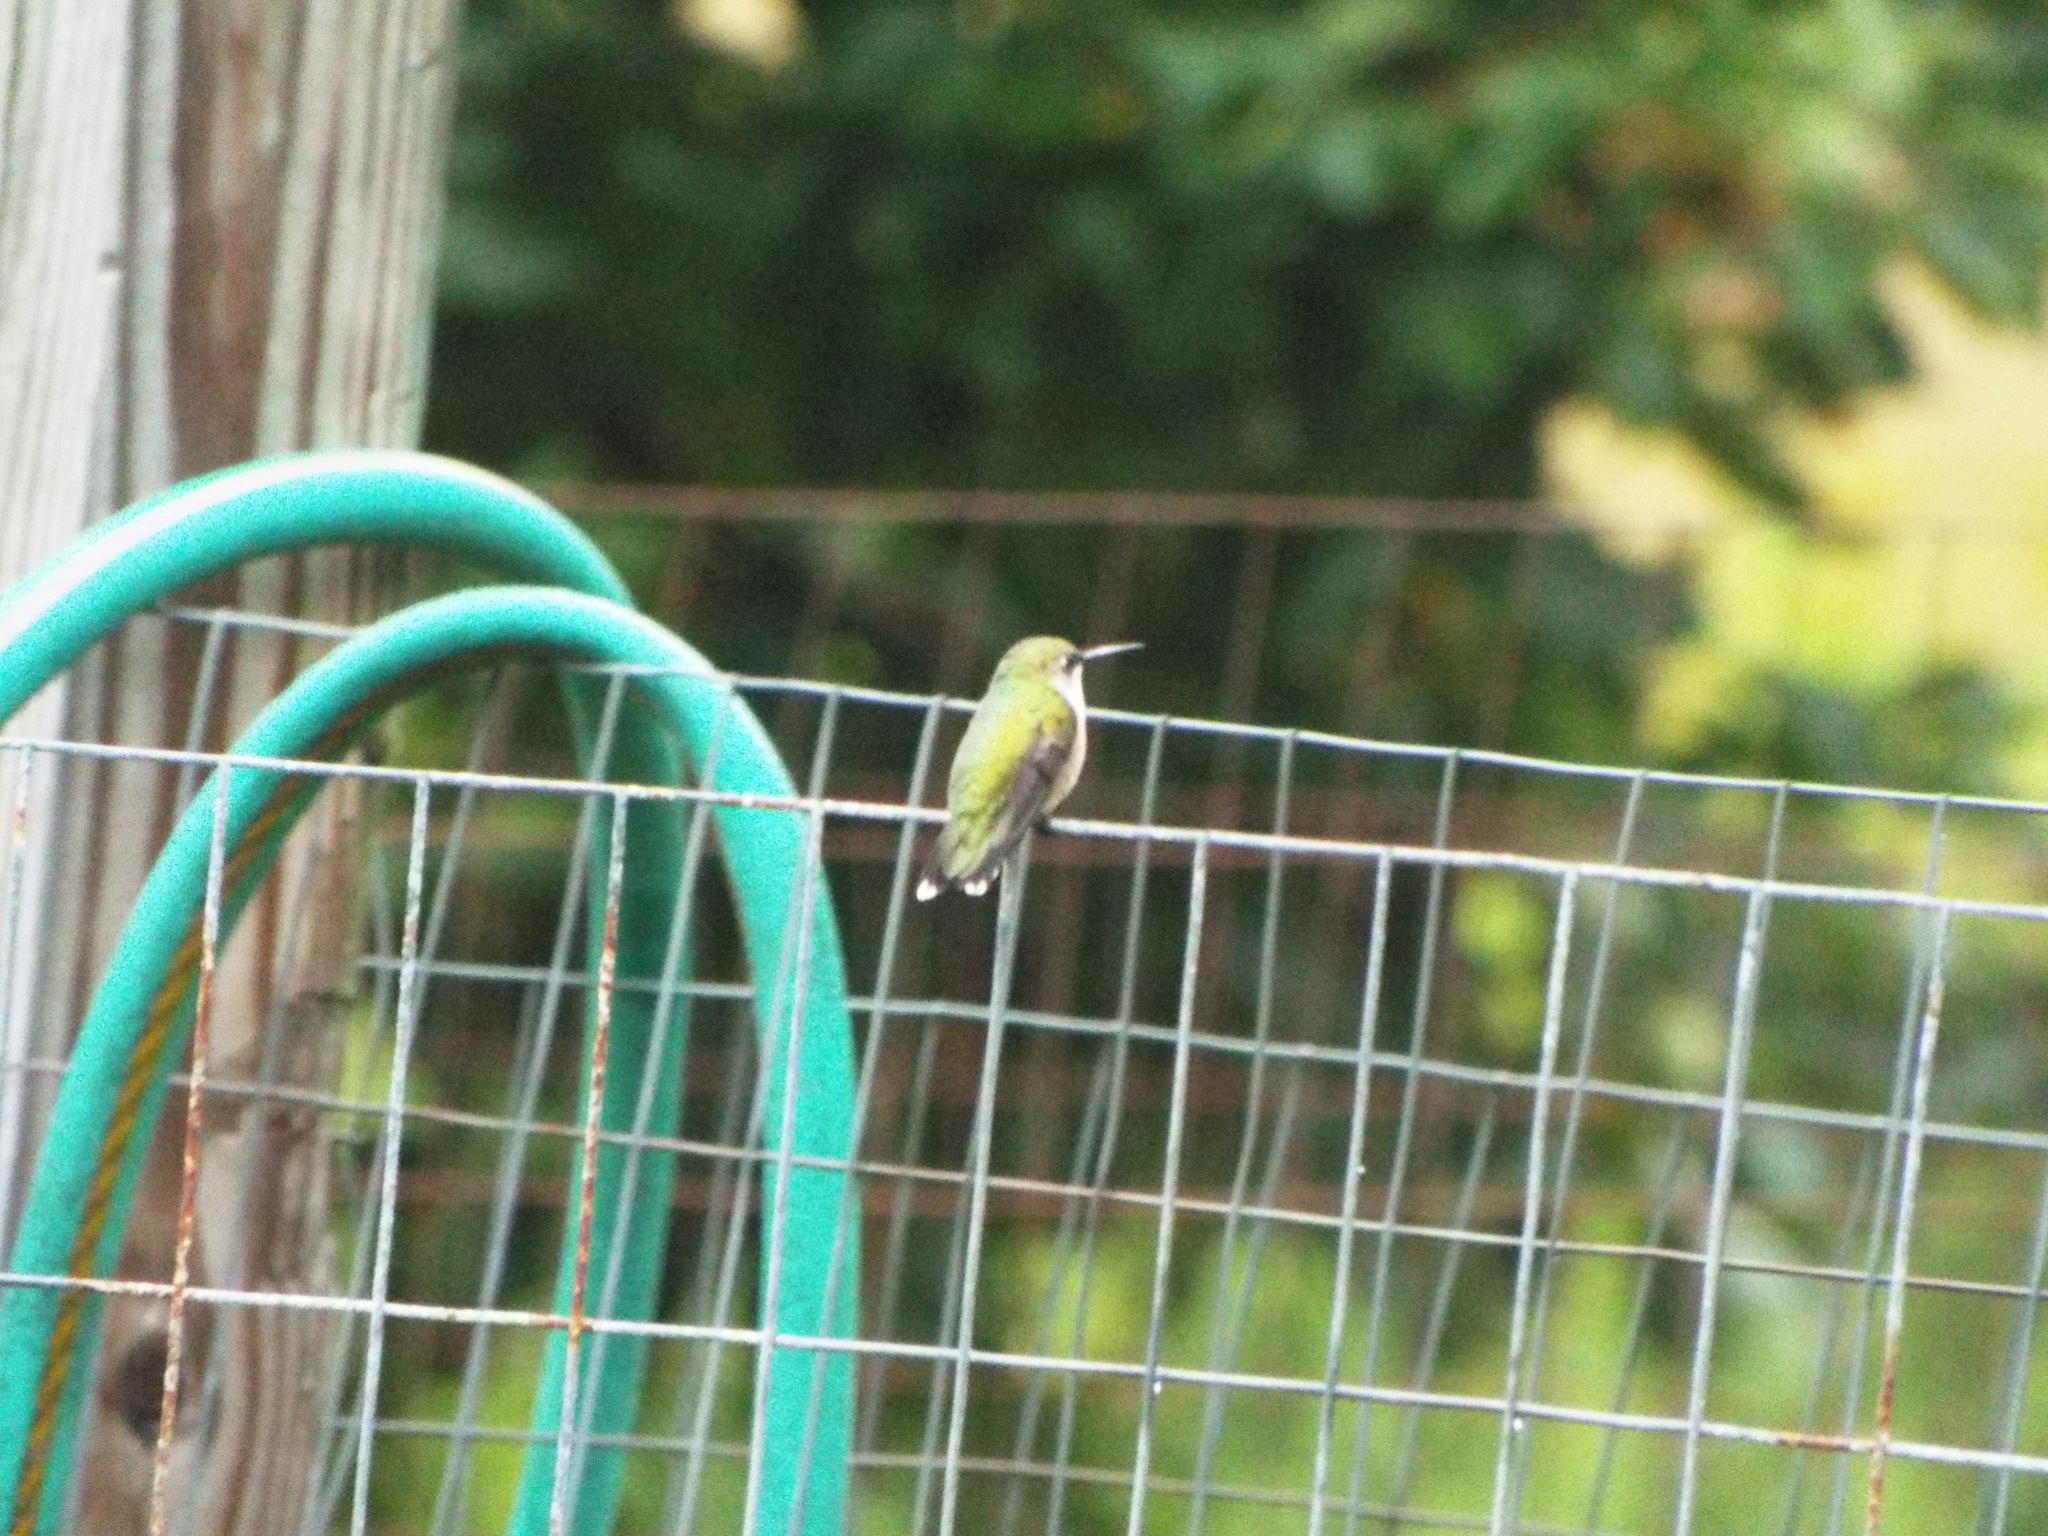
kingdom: Animalia
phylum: Chordata
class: Aves
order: Apodiformes
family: Trochilidae
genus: Archilochus
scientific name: Archilochus colubris
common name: Ruby-throated hummingbird
